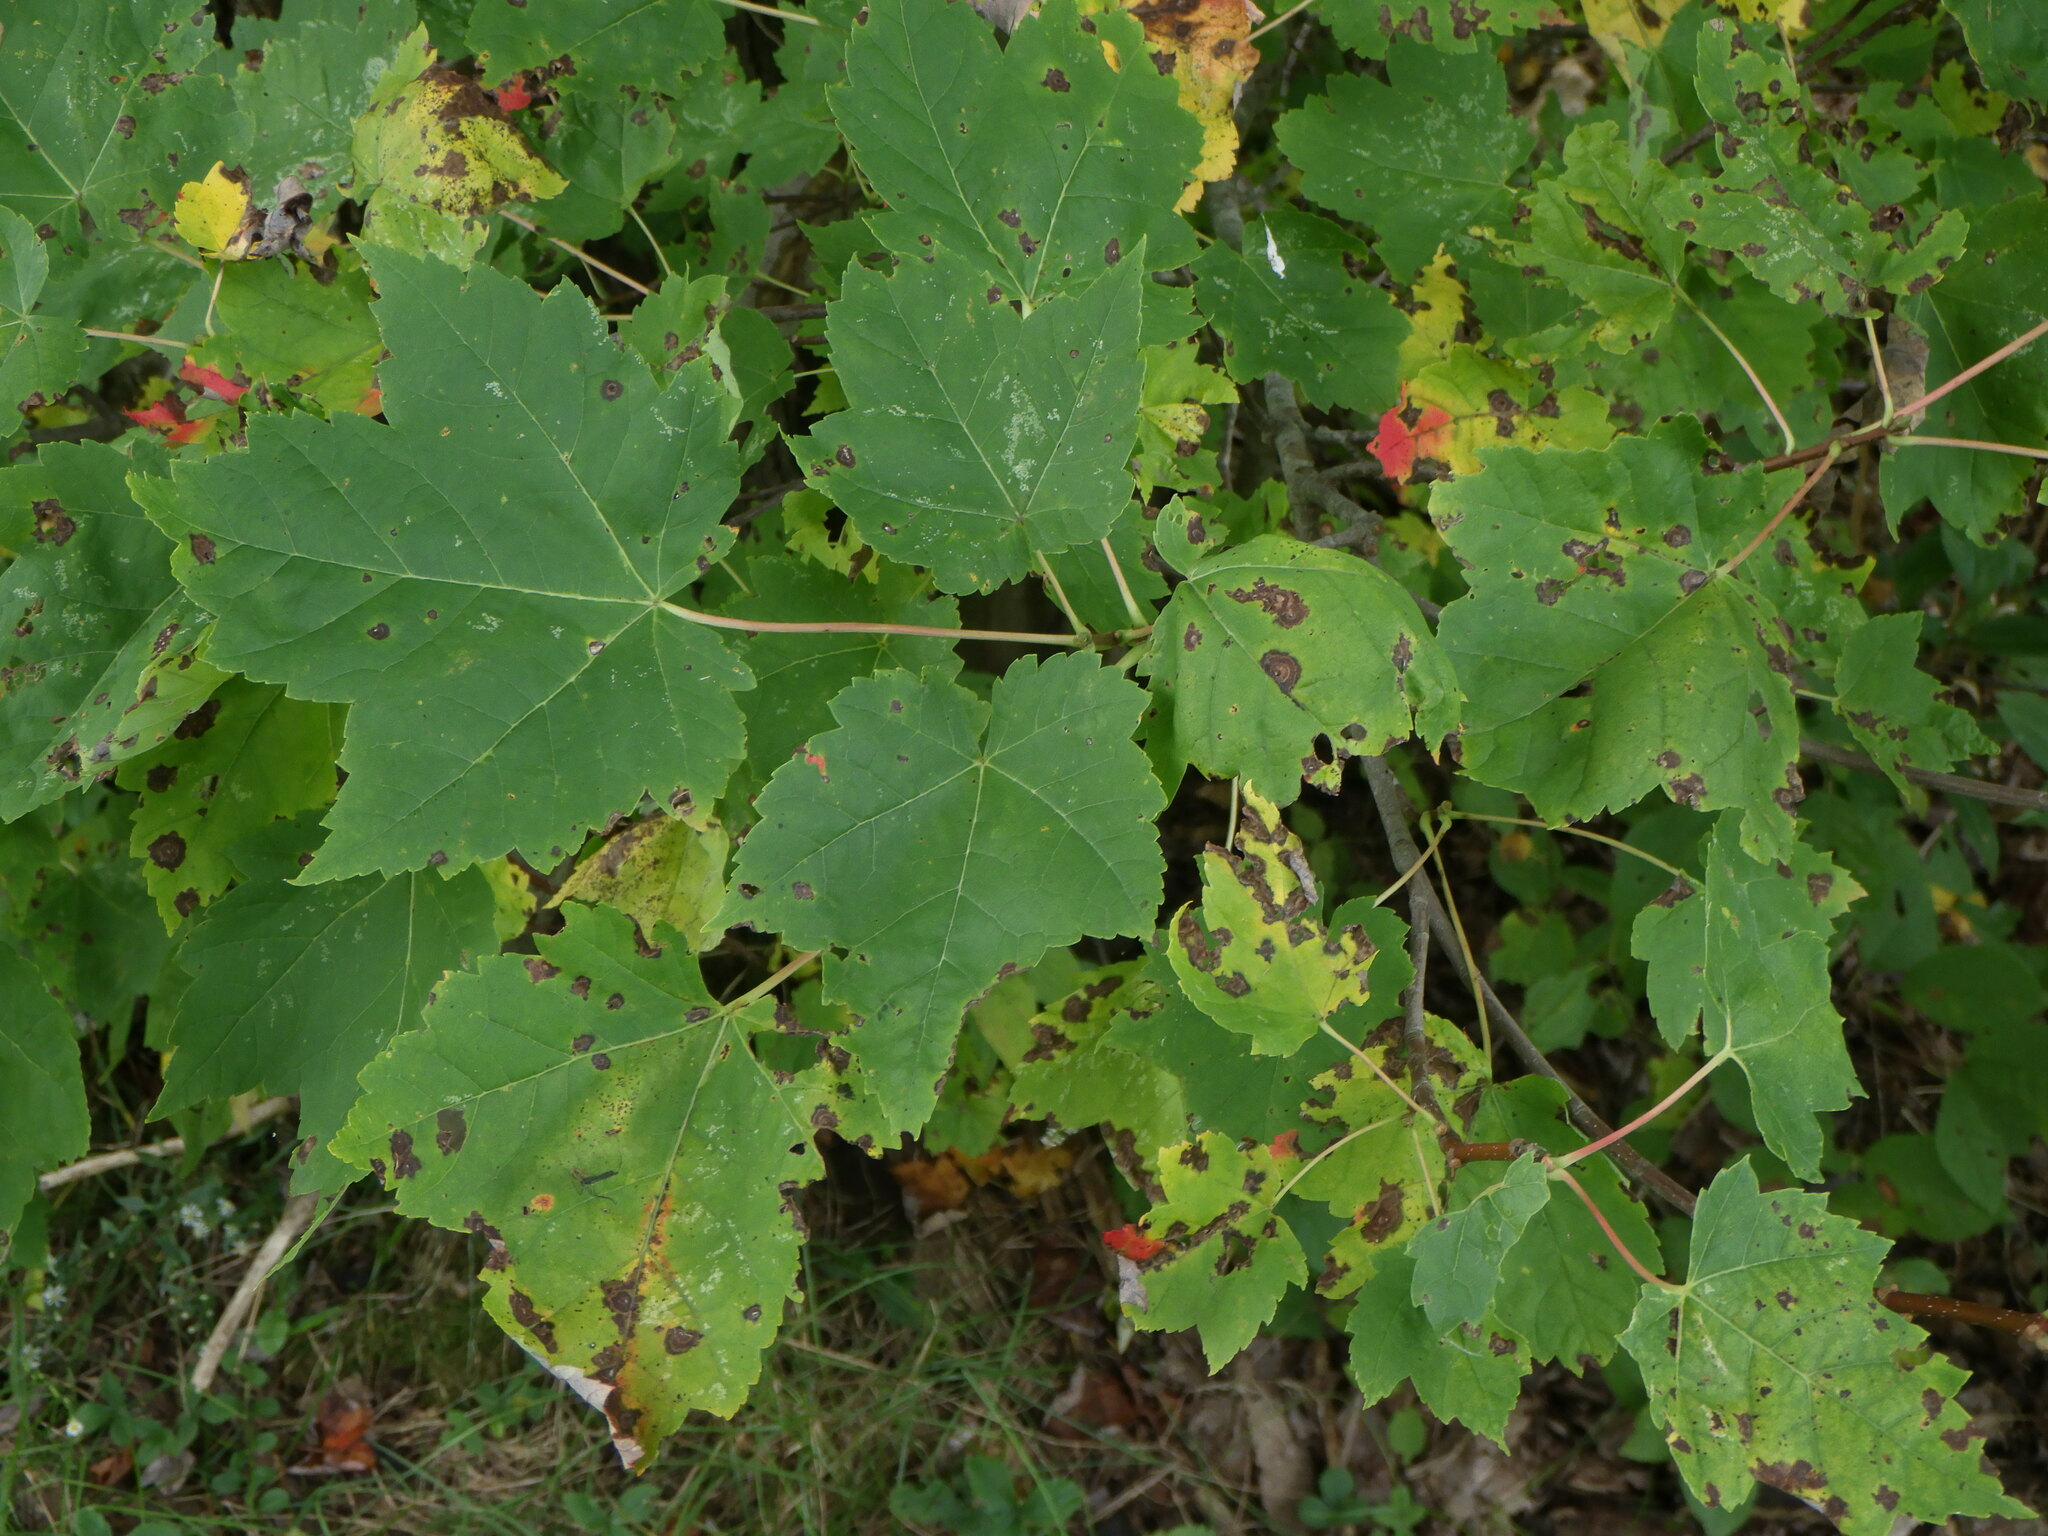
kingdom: Plantae
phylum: Tracheophyta
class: Magnoliopsida
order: Sapindales
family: Sapindaceae
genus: Acer
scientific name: Acer rubrum
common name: Red maple
